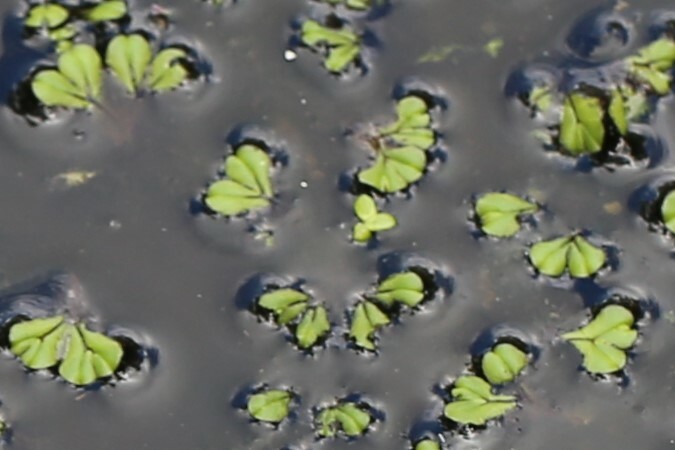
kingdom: Plantae
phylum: Marchantiophyta
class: Marchantiopsida
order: Marchantiales
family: Ricciaceae
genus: Ricciocarpos
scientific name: Ricciocarpos natans
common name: Purple-fringed liverwort
